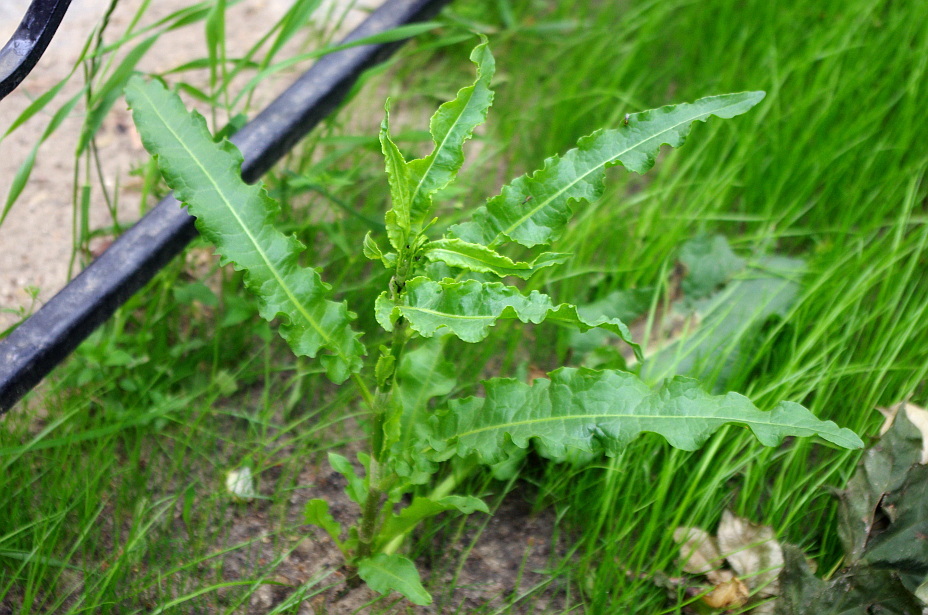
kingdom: Plantae
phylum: Tracheophyta
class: Magnoliopsida
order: Caryophyllales
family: Polygonaceae
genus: Rumex
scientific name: Rumex crispus
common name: Curled dock
